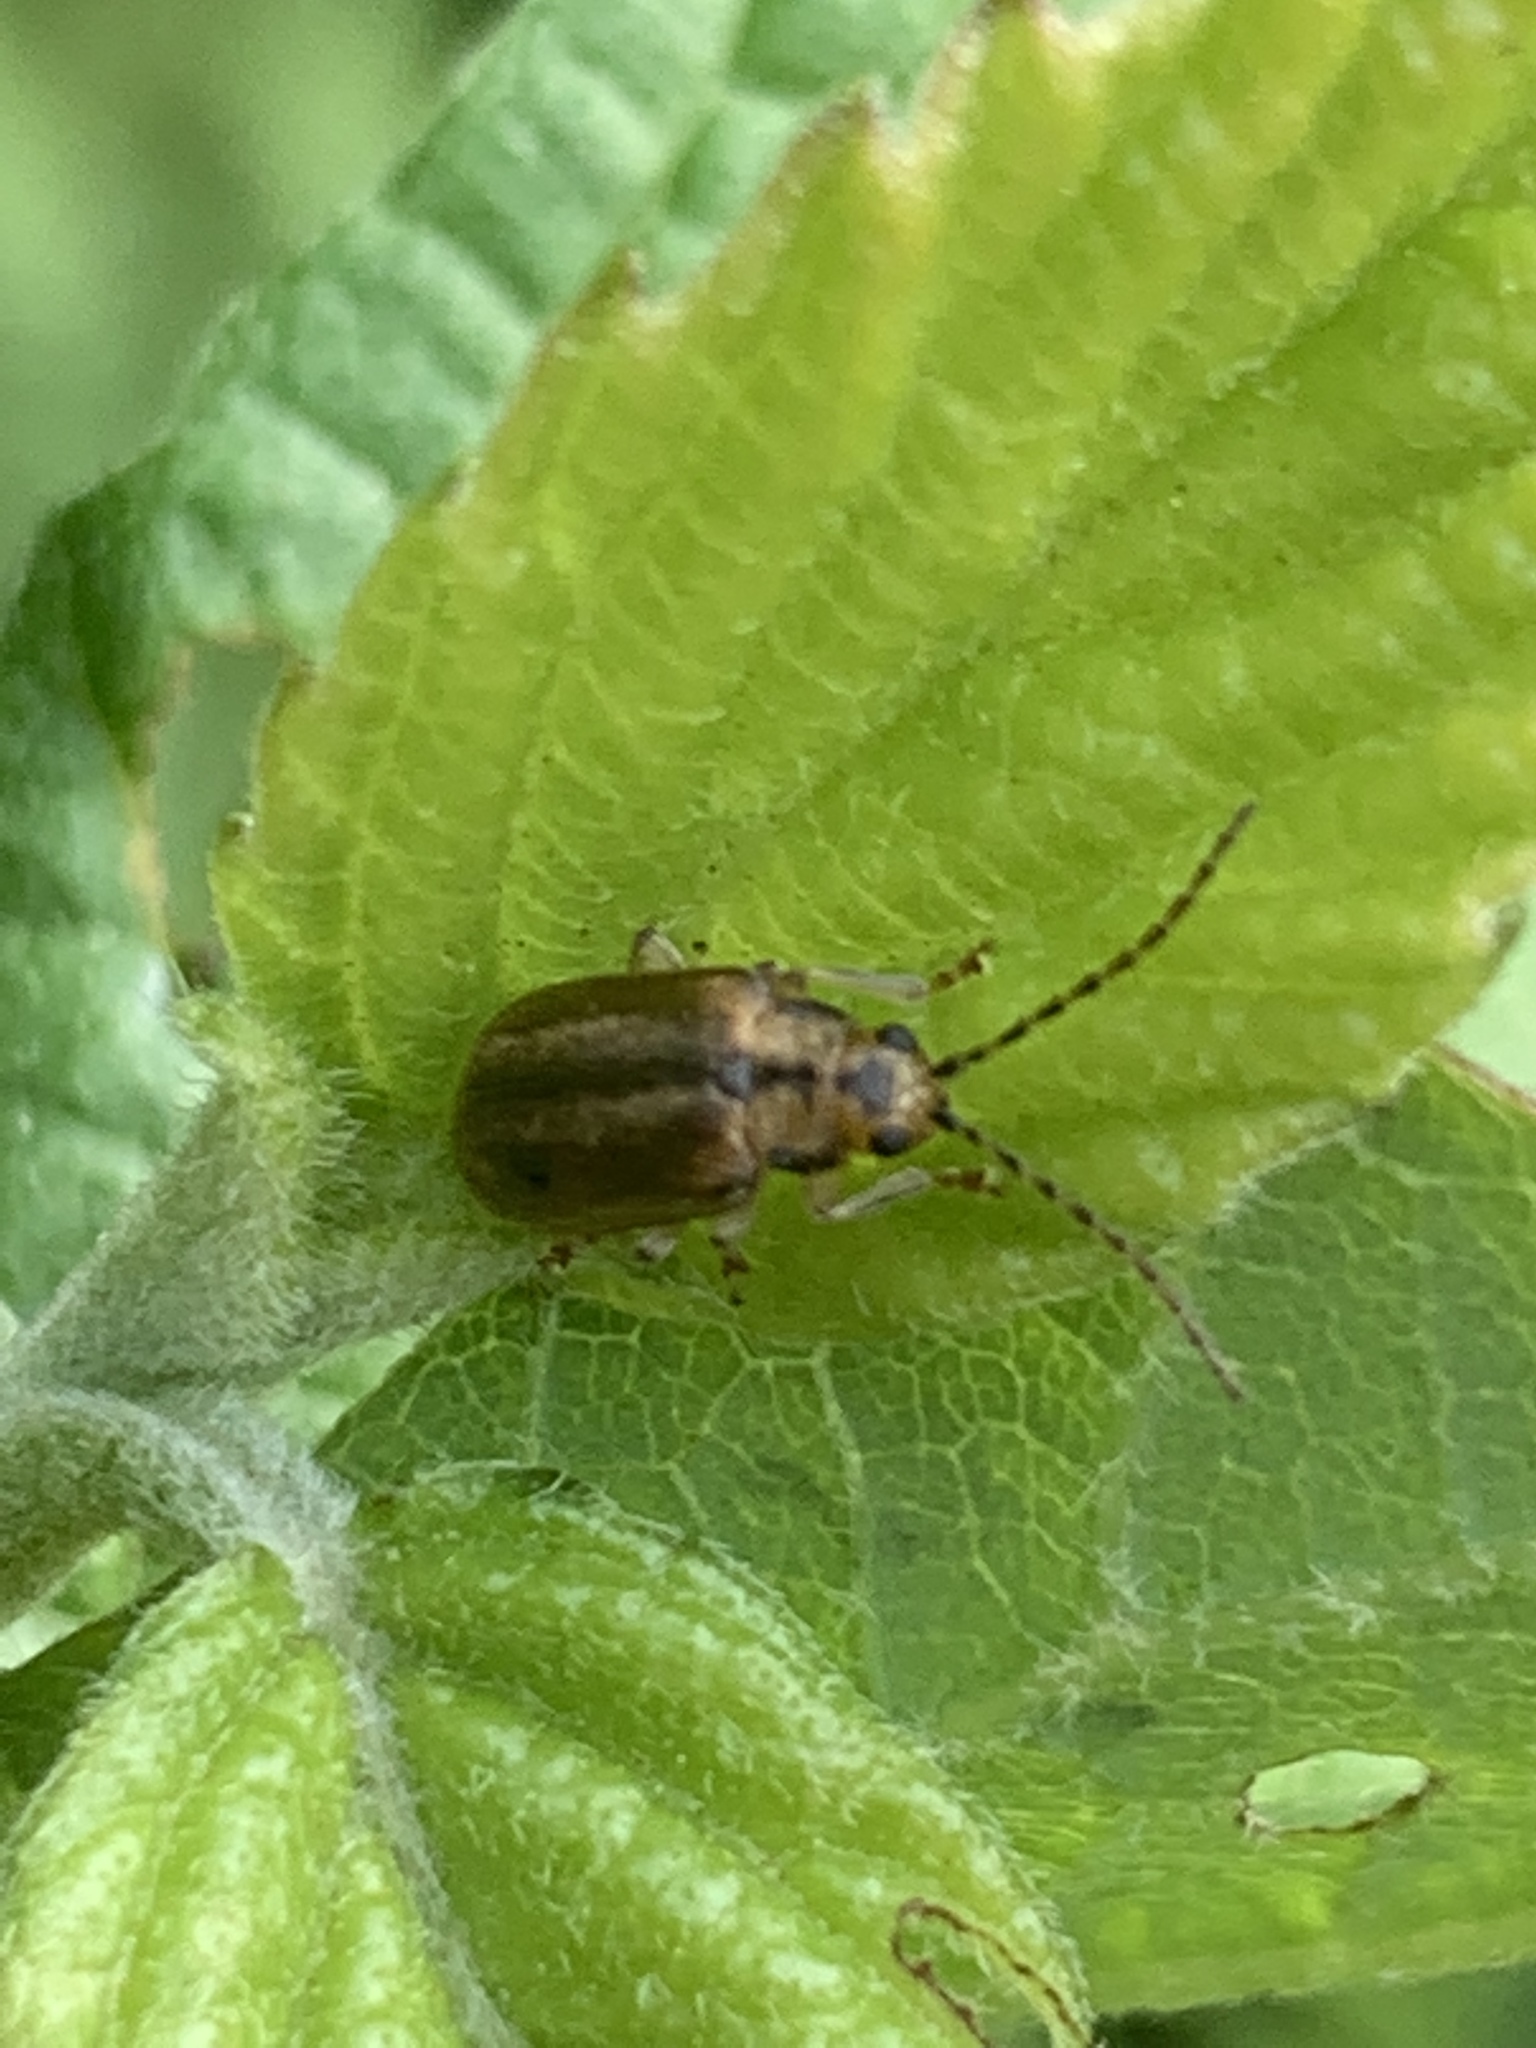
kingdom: Animalia
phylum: Arthropoda
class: Insecta
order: Coleoptera
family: Chrysomelidae
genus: Pyrrhalta
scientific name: Pyrrhalta viburni
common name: Guelder-rose leaf beetle
